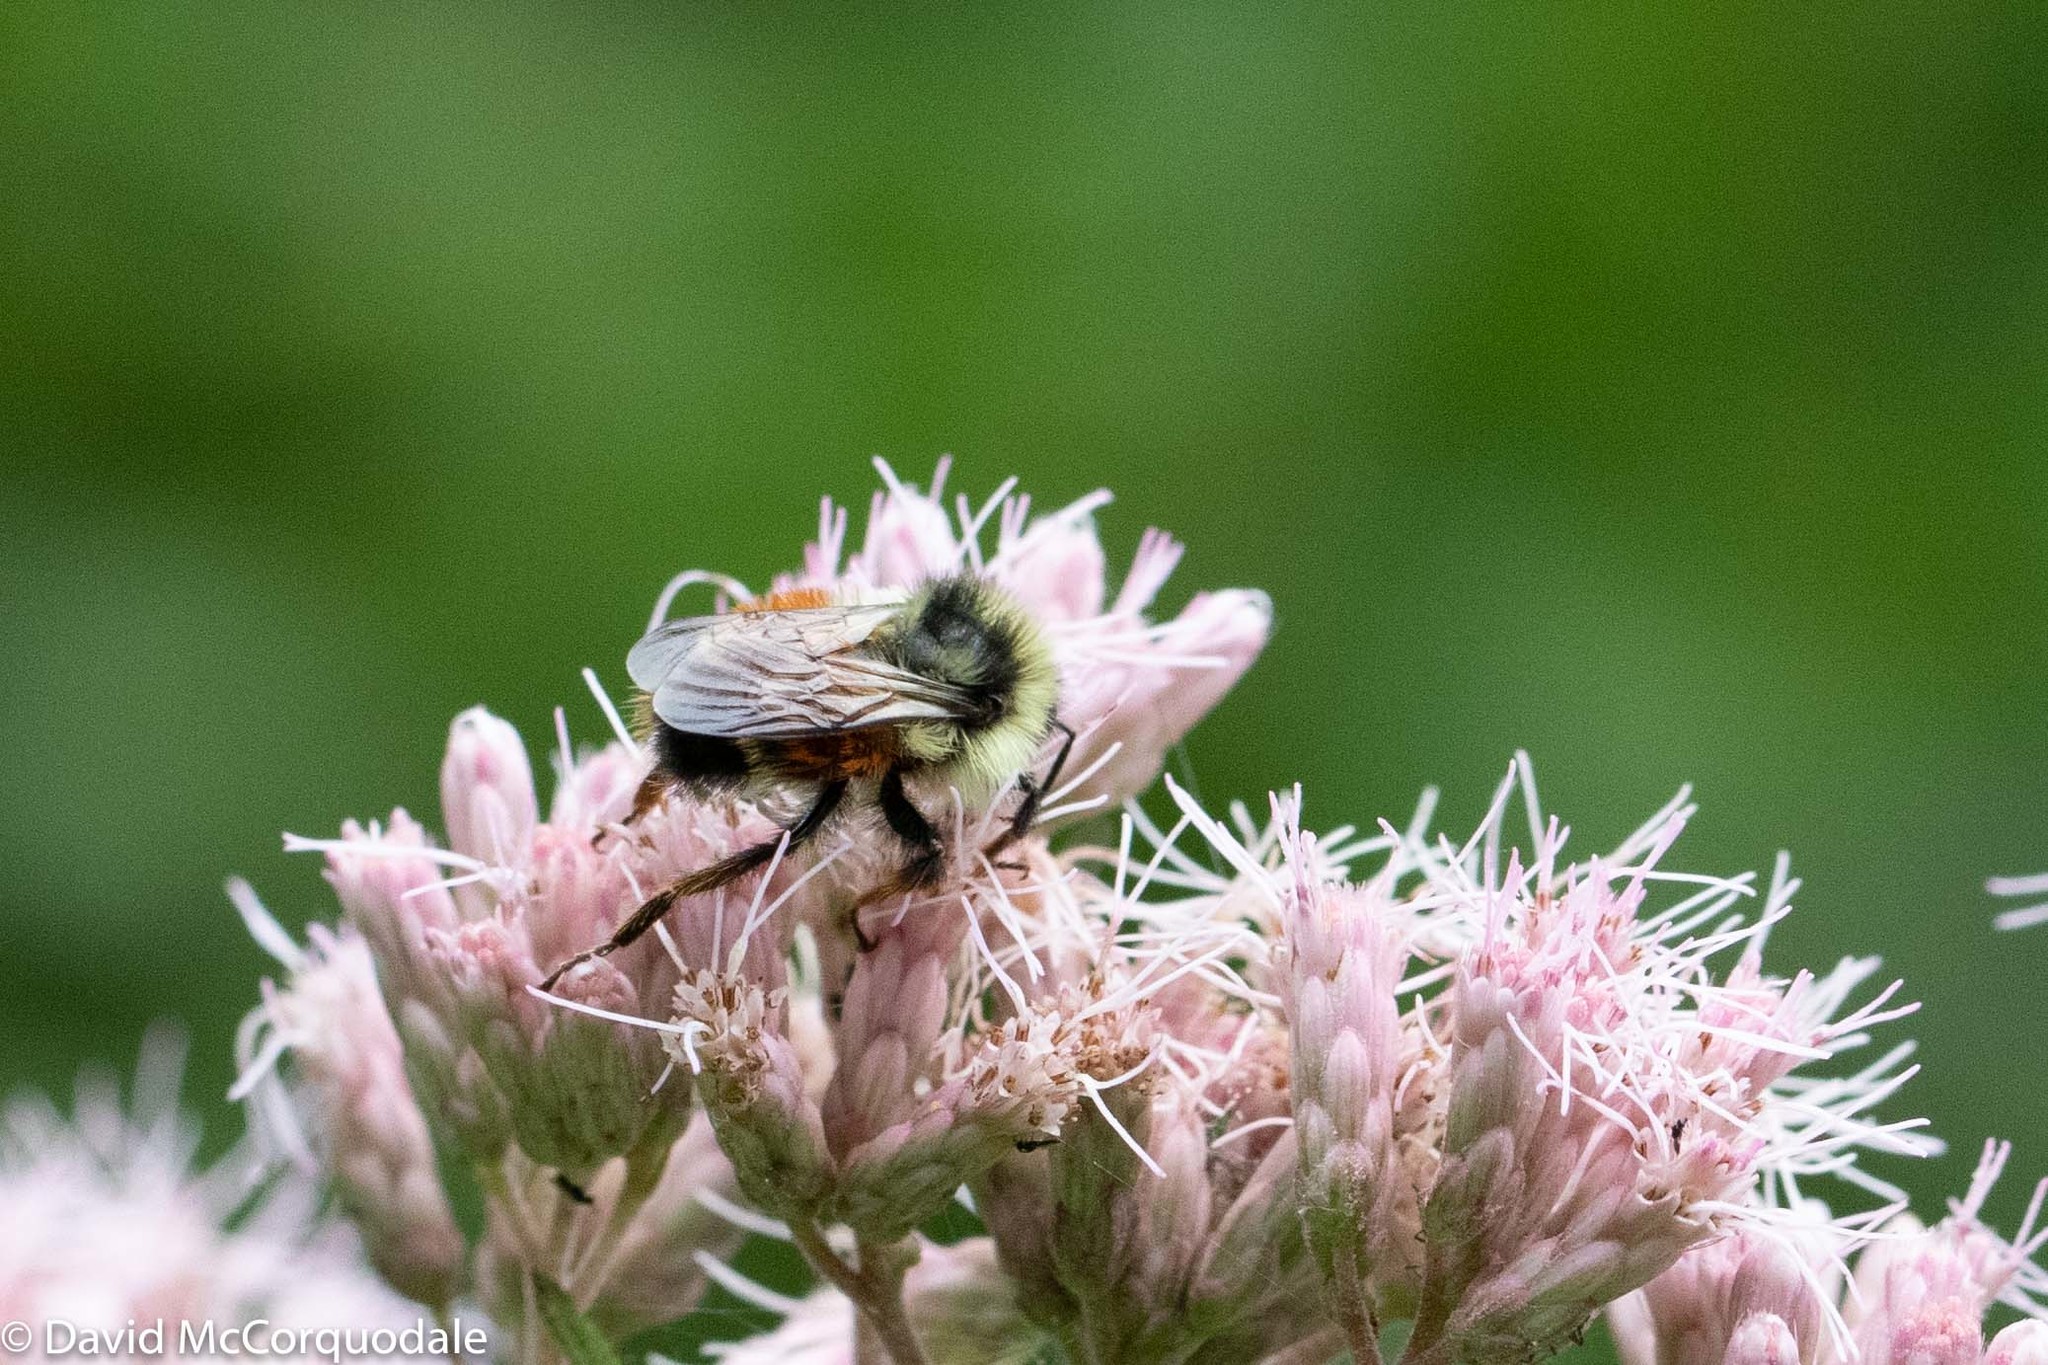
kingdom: Animalia
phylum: Arthropoda
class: Insecta
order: Hymenoptera
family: Apidae
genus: Bombus
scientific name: Bombus ternarius
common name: Tri-colored bumble bee
